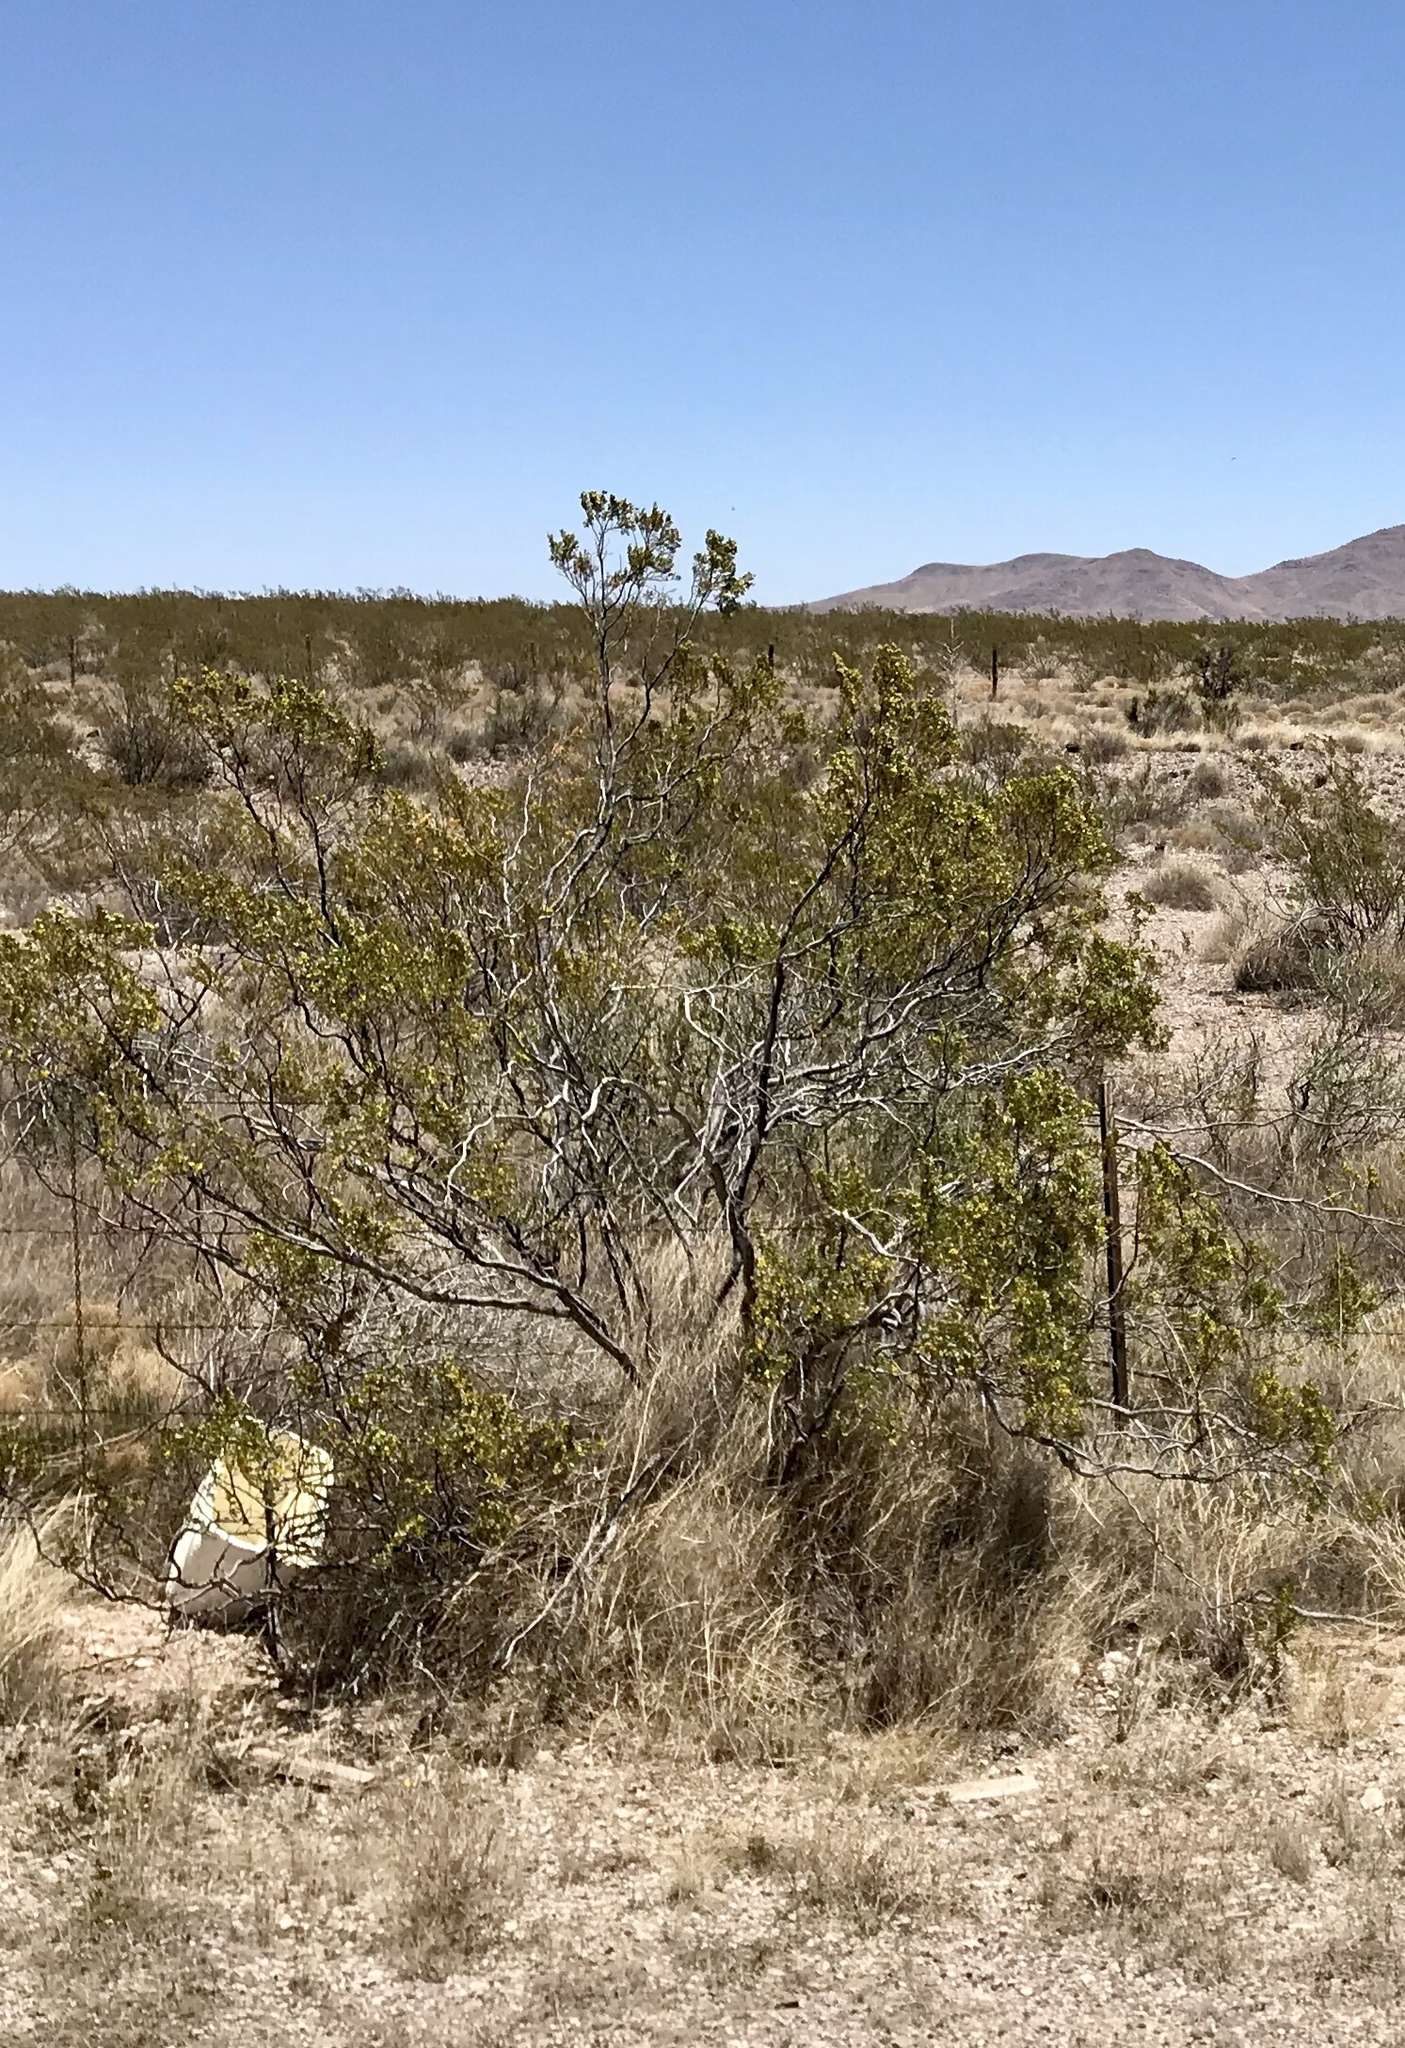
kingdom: Plantae
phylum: Tracheophyta
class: Magnoliopsida
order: Zygophyllales
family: Zygophyllaceae
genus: Larrea
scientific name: Larrea tridentata
